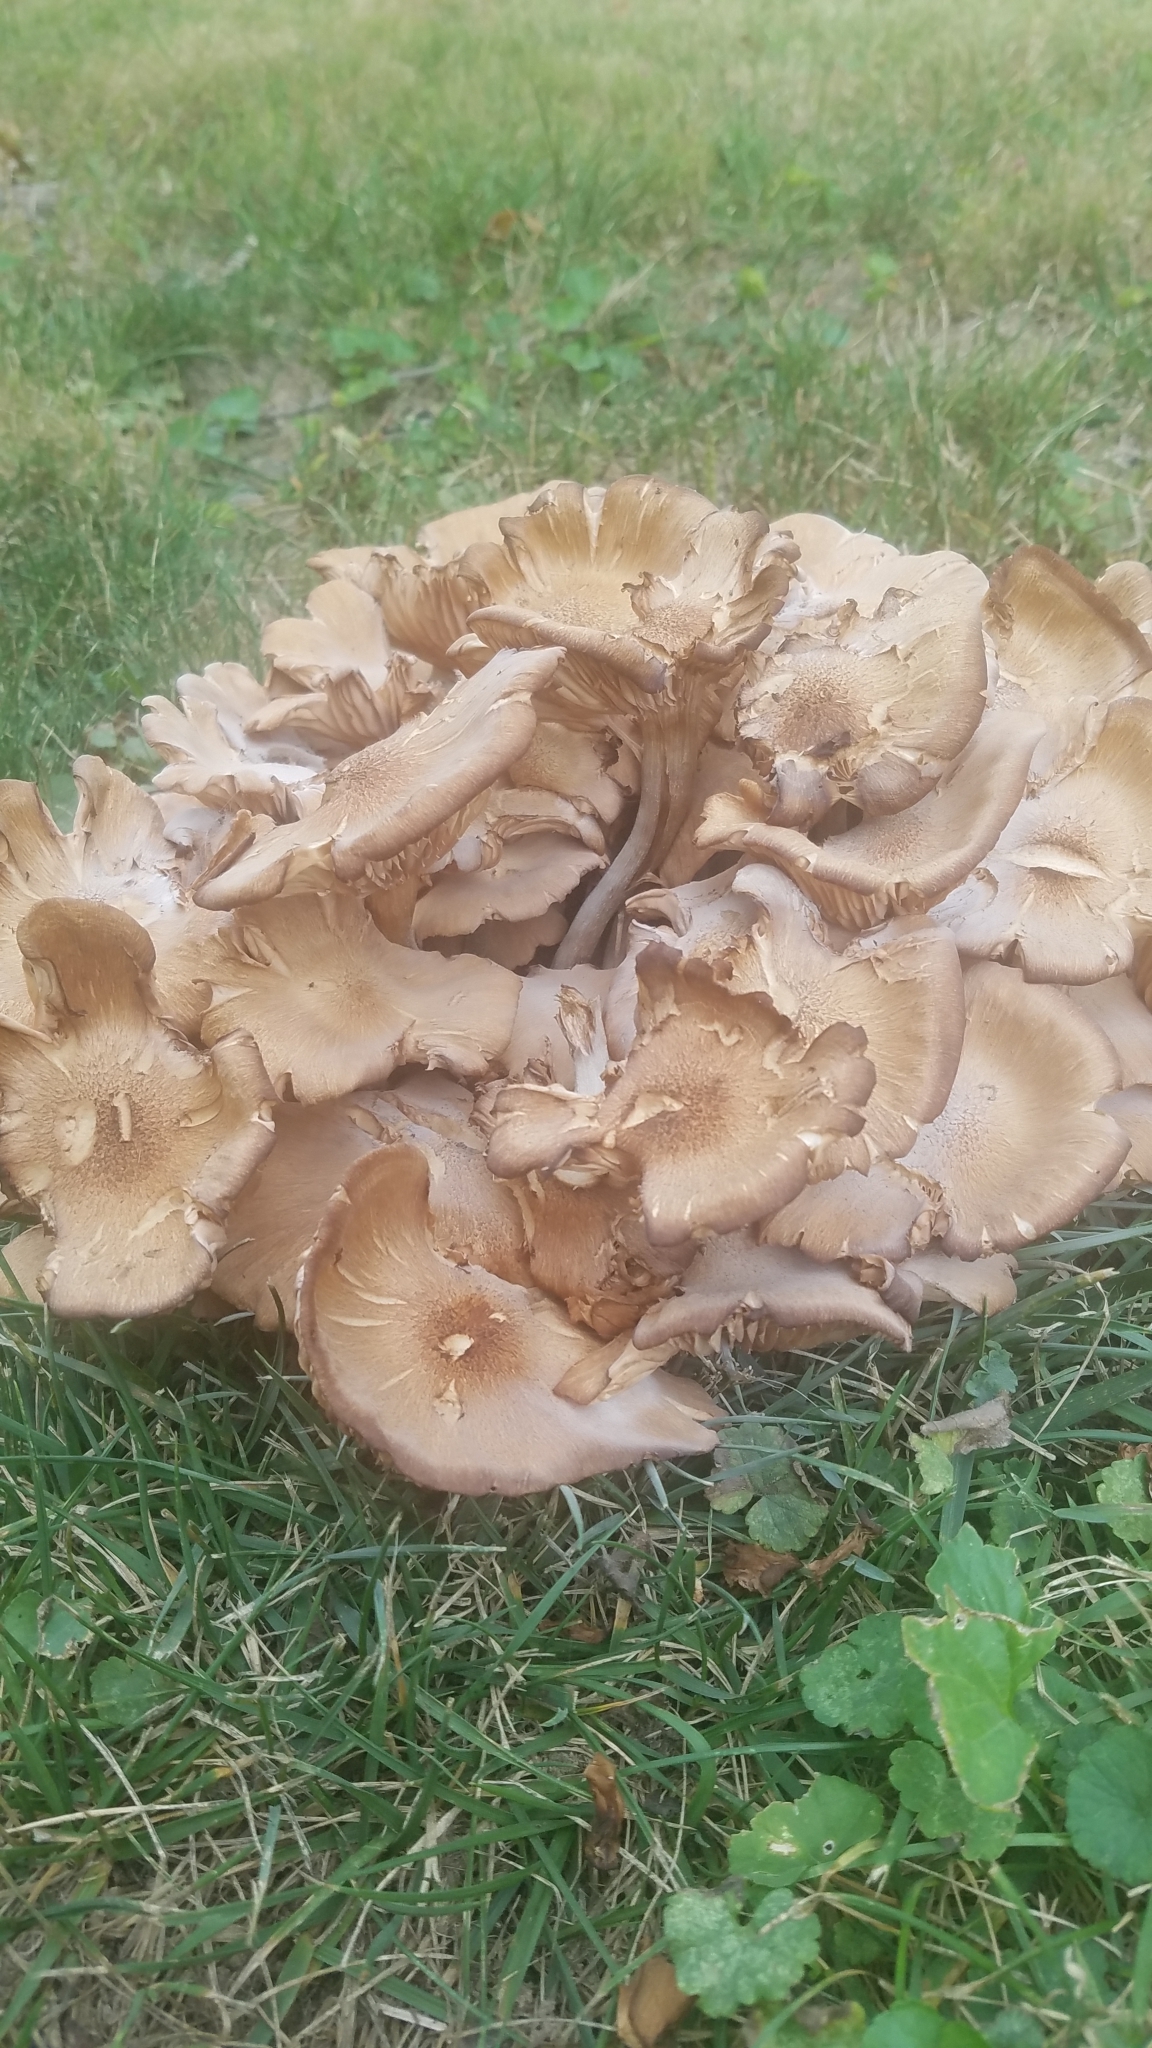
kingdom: Fungi
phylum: Basidiomycota
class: Agaricomycetes
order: Agaricales
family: Physalacriaceae
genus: Desarmillaria
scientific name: Desarmillaria caespitosa
